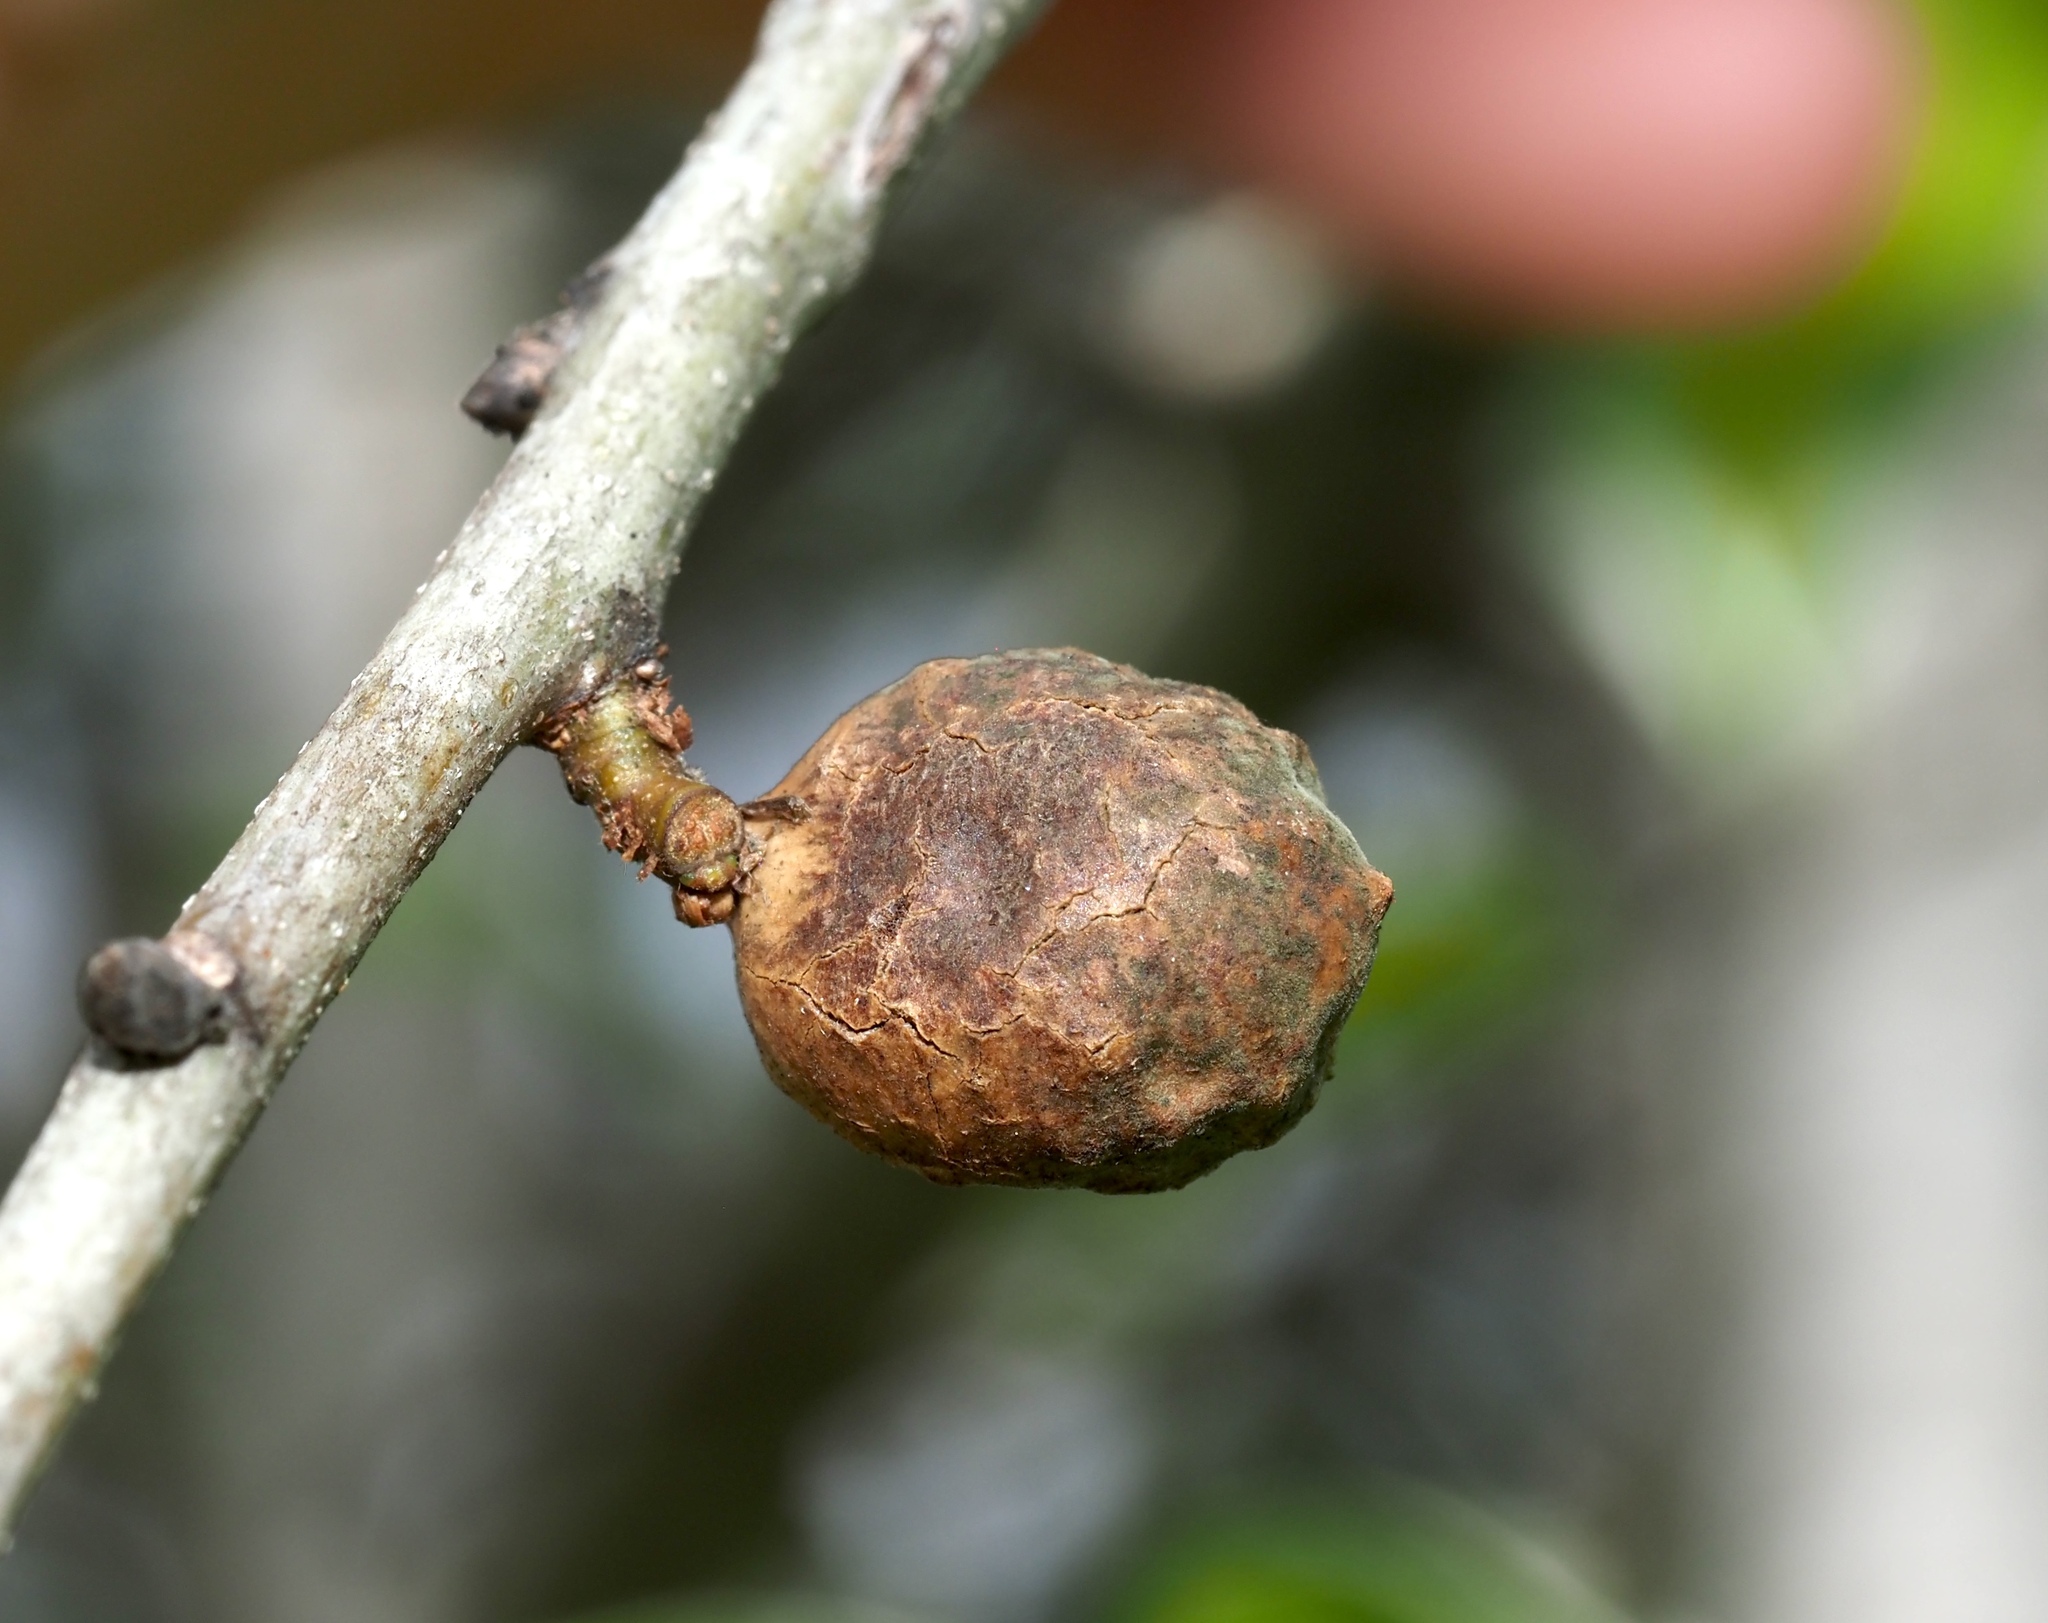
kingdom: Animalia
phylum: Arthropoda
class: Insecta
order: Hymenoptera
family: Cynipidae
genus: Amphibolips
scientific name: Amphibolips
